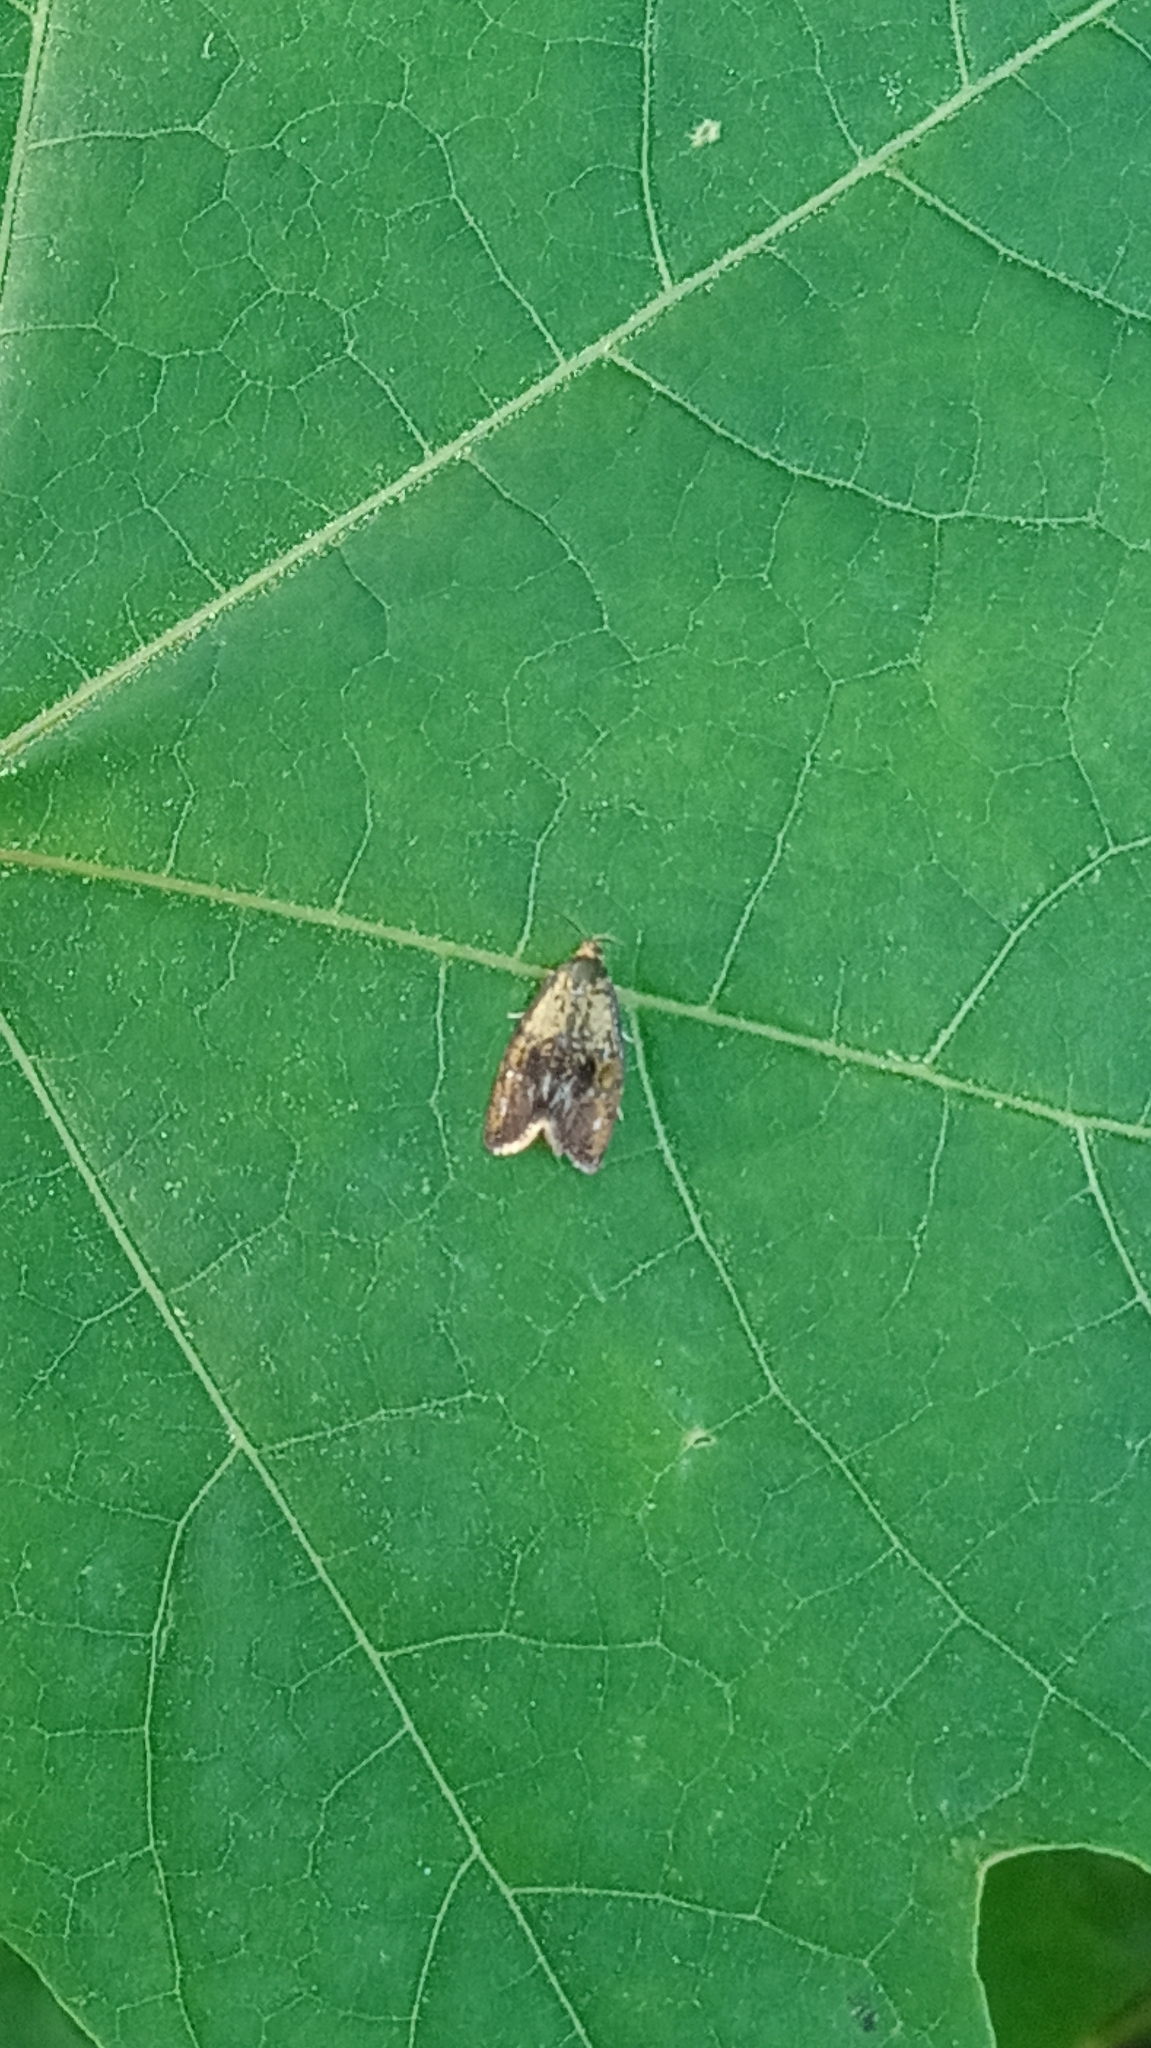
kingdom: Animalia
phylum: Arthropoda
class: Insecta
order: Lepidoptera
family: Tortricidae
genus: Ptycholoma
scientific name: Ptycholoma lecheana
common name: Leches twist moth
